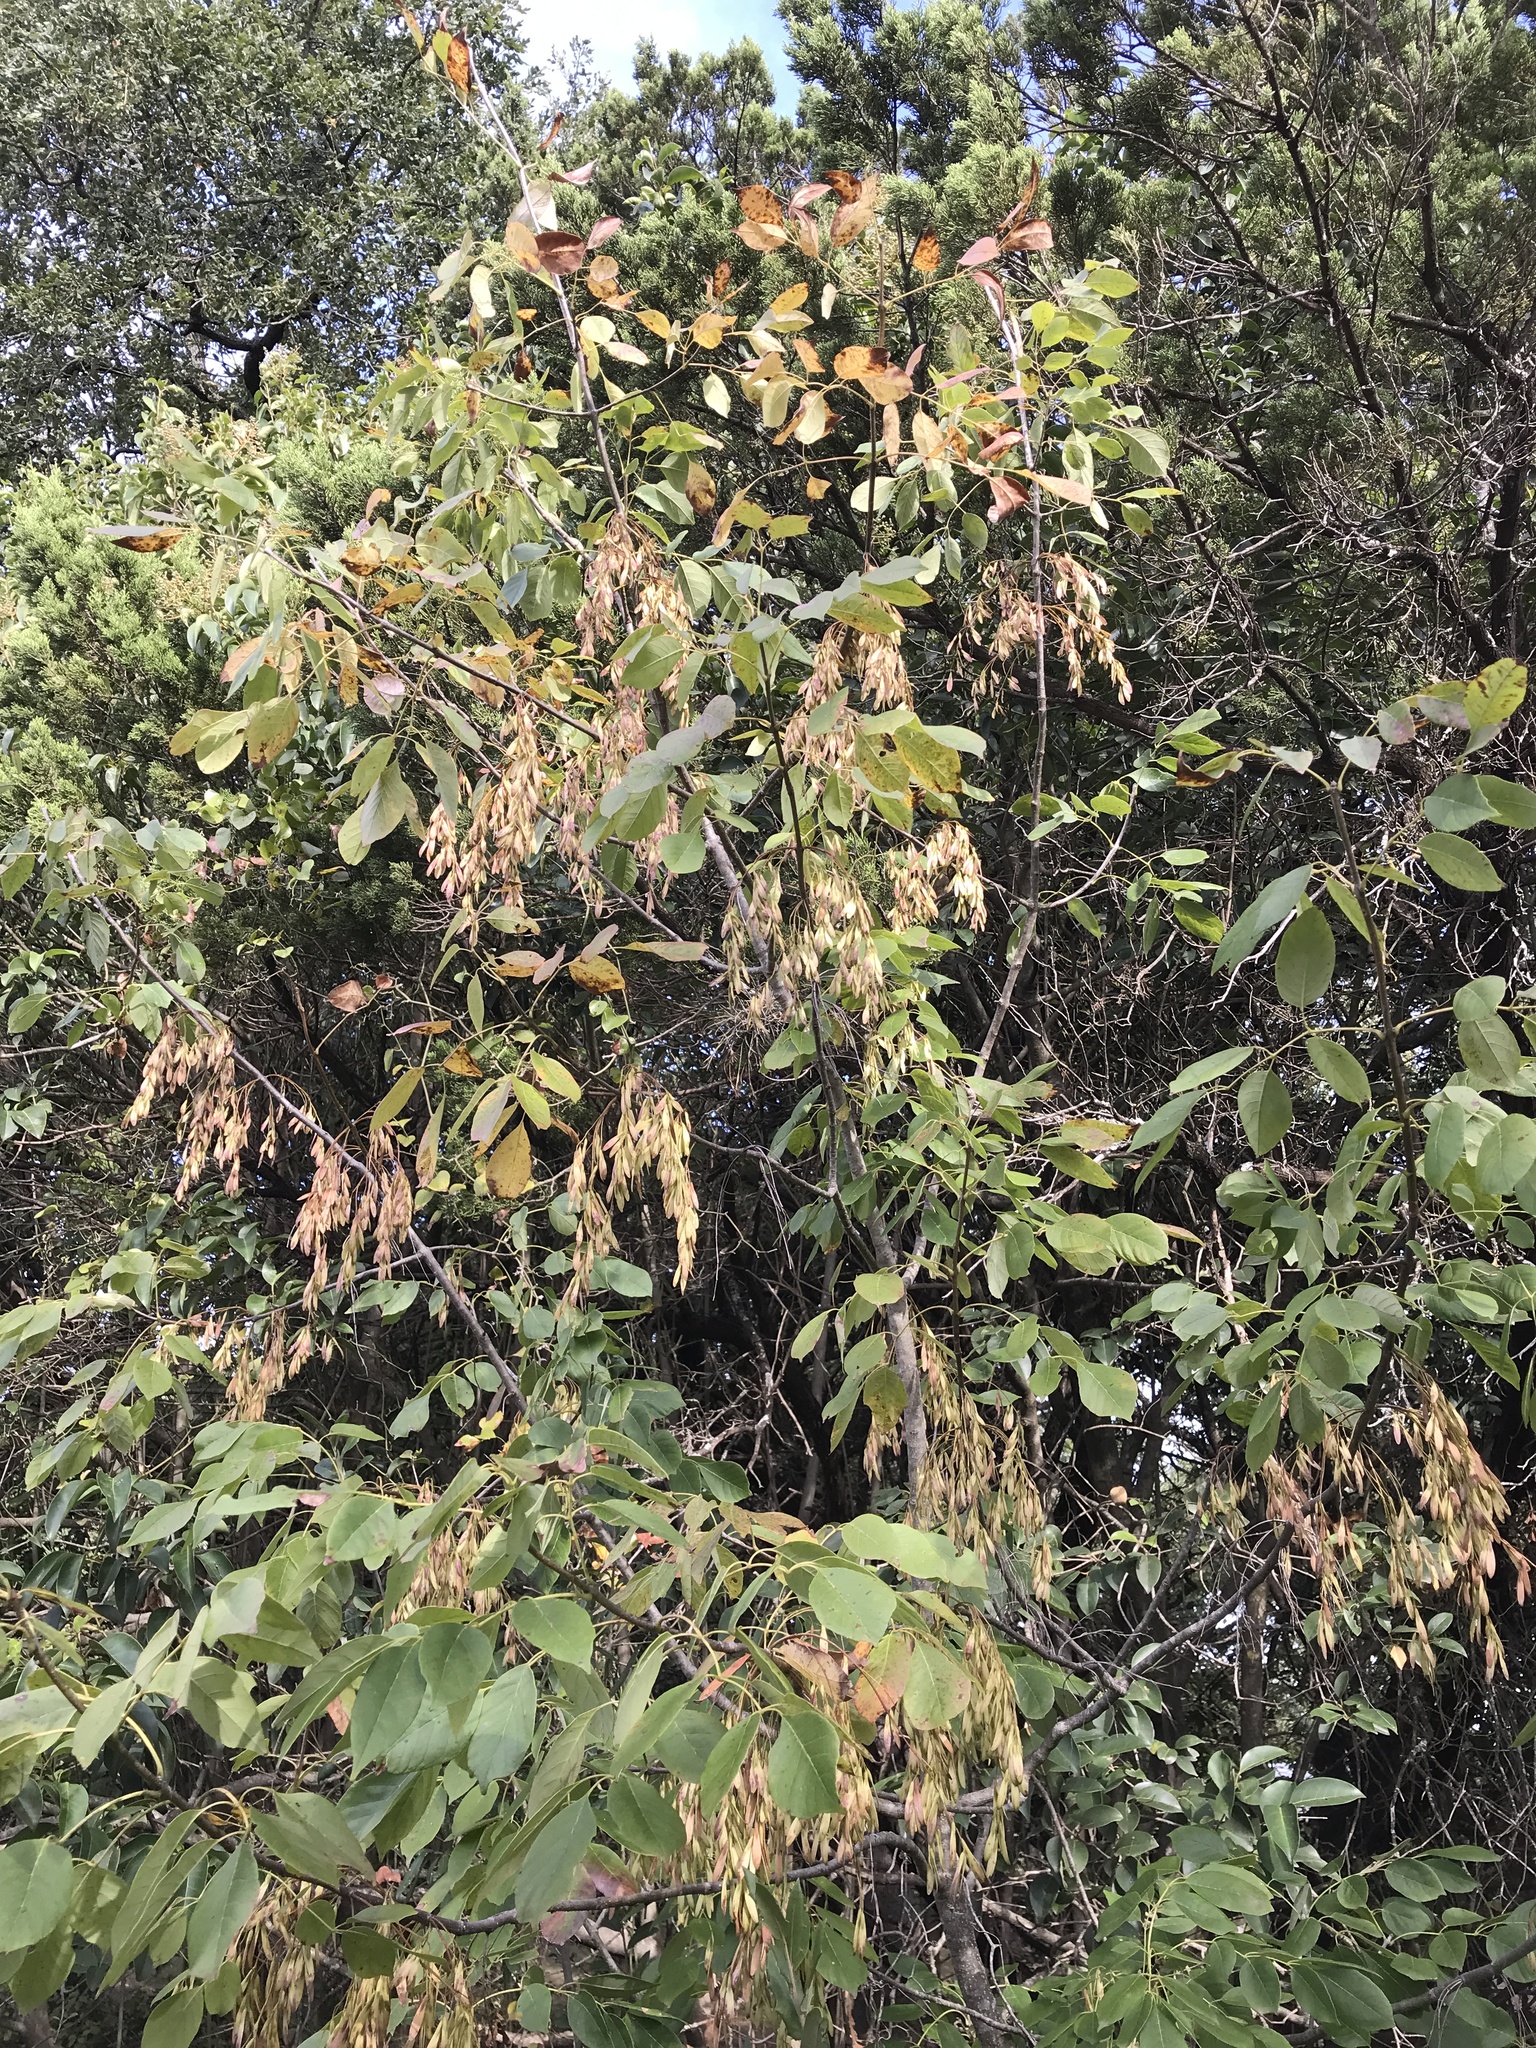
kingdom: Plantae
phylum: Tracheophyta
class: Magnoliopsida
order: Lamiales
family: Oleaceae
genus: Fraxinus
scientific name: Fraxinus albicans
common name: Texas ash
